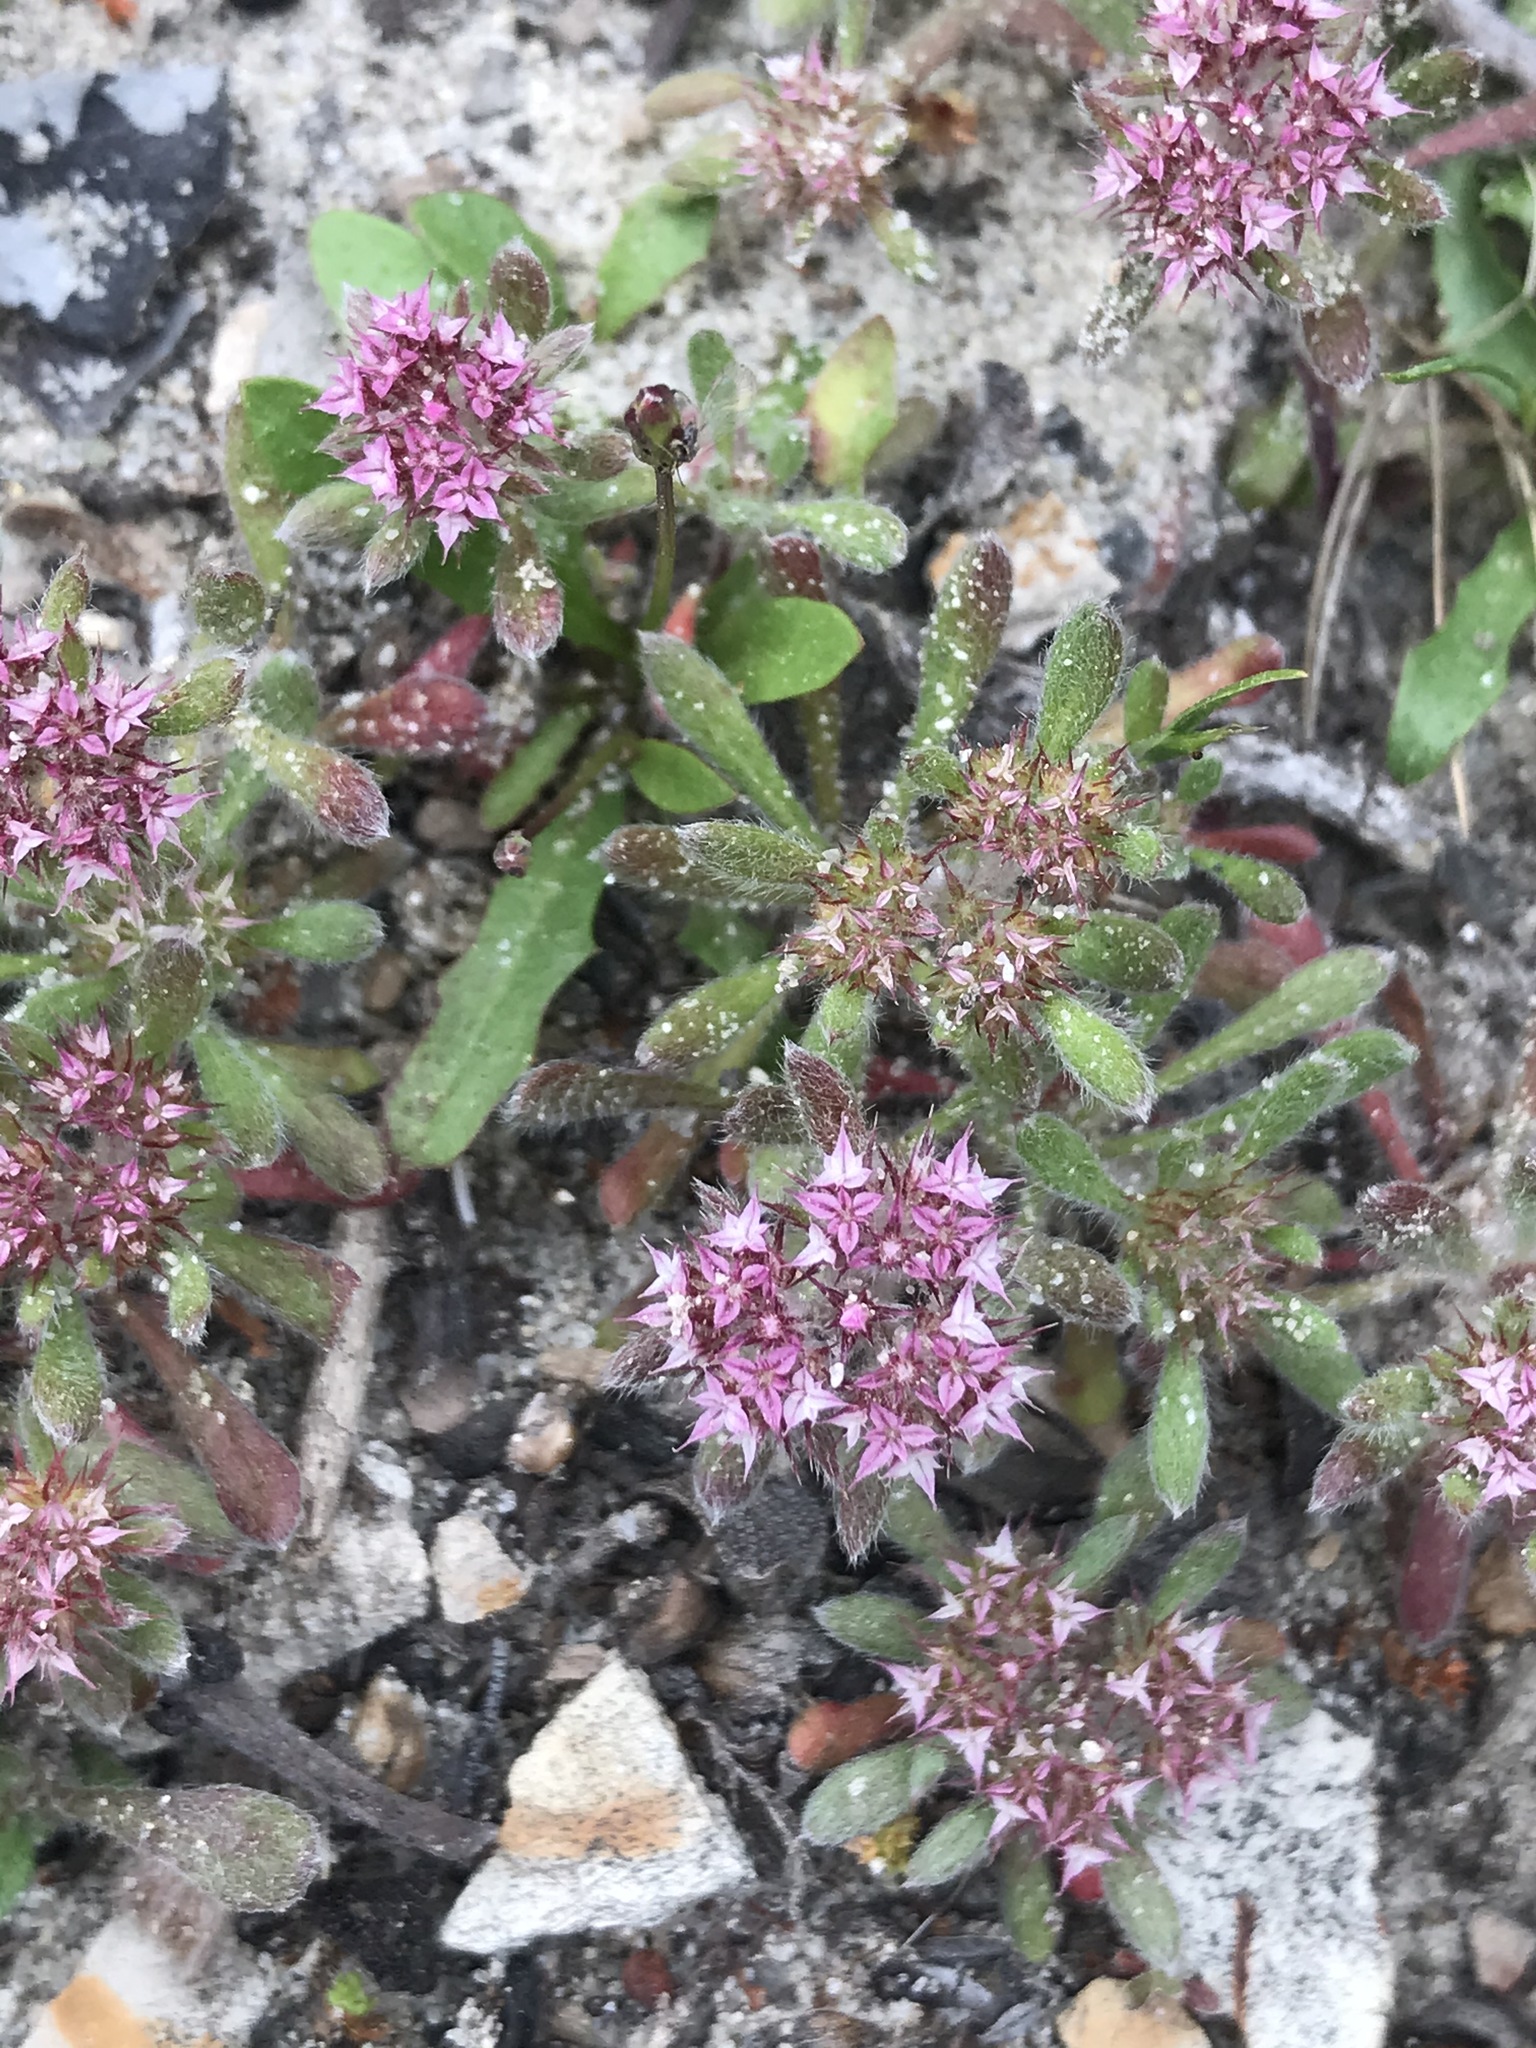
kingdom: Plantae
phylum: Tracheophyta
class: Magnoliopsida
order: Caryophyllales
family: Polygonaceae
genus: Chorizanthe
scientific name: Chorizanthe pungens
